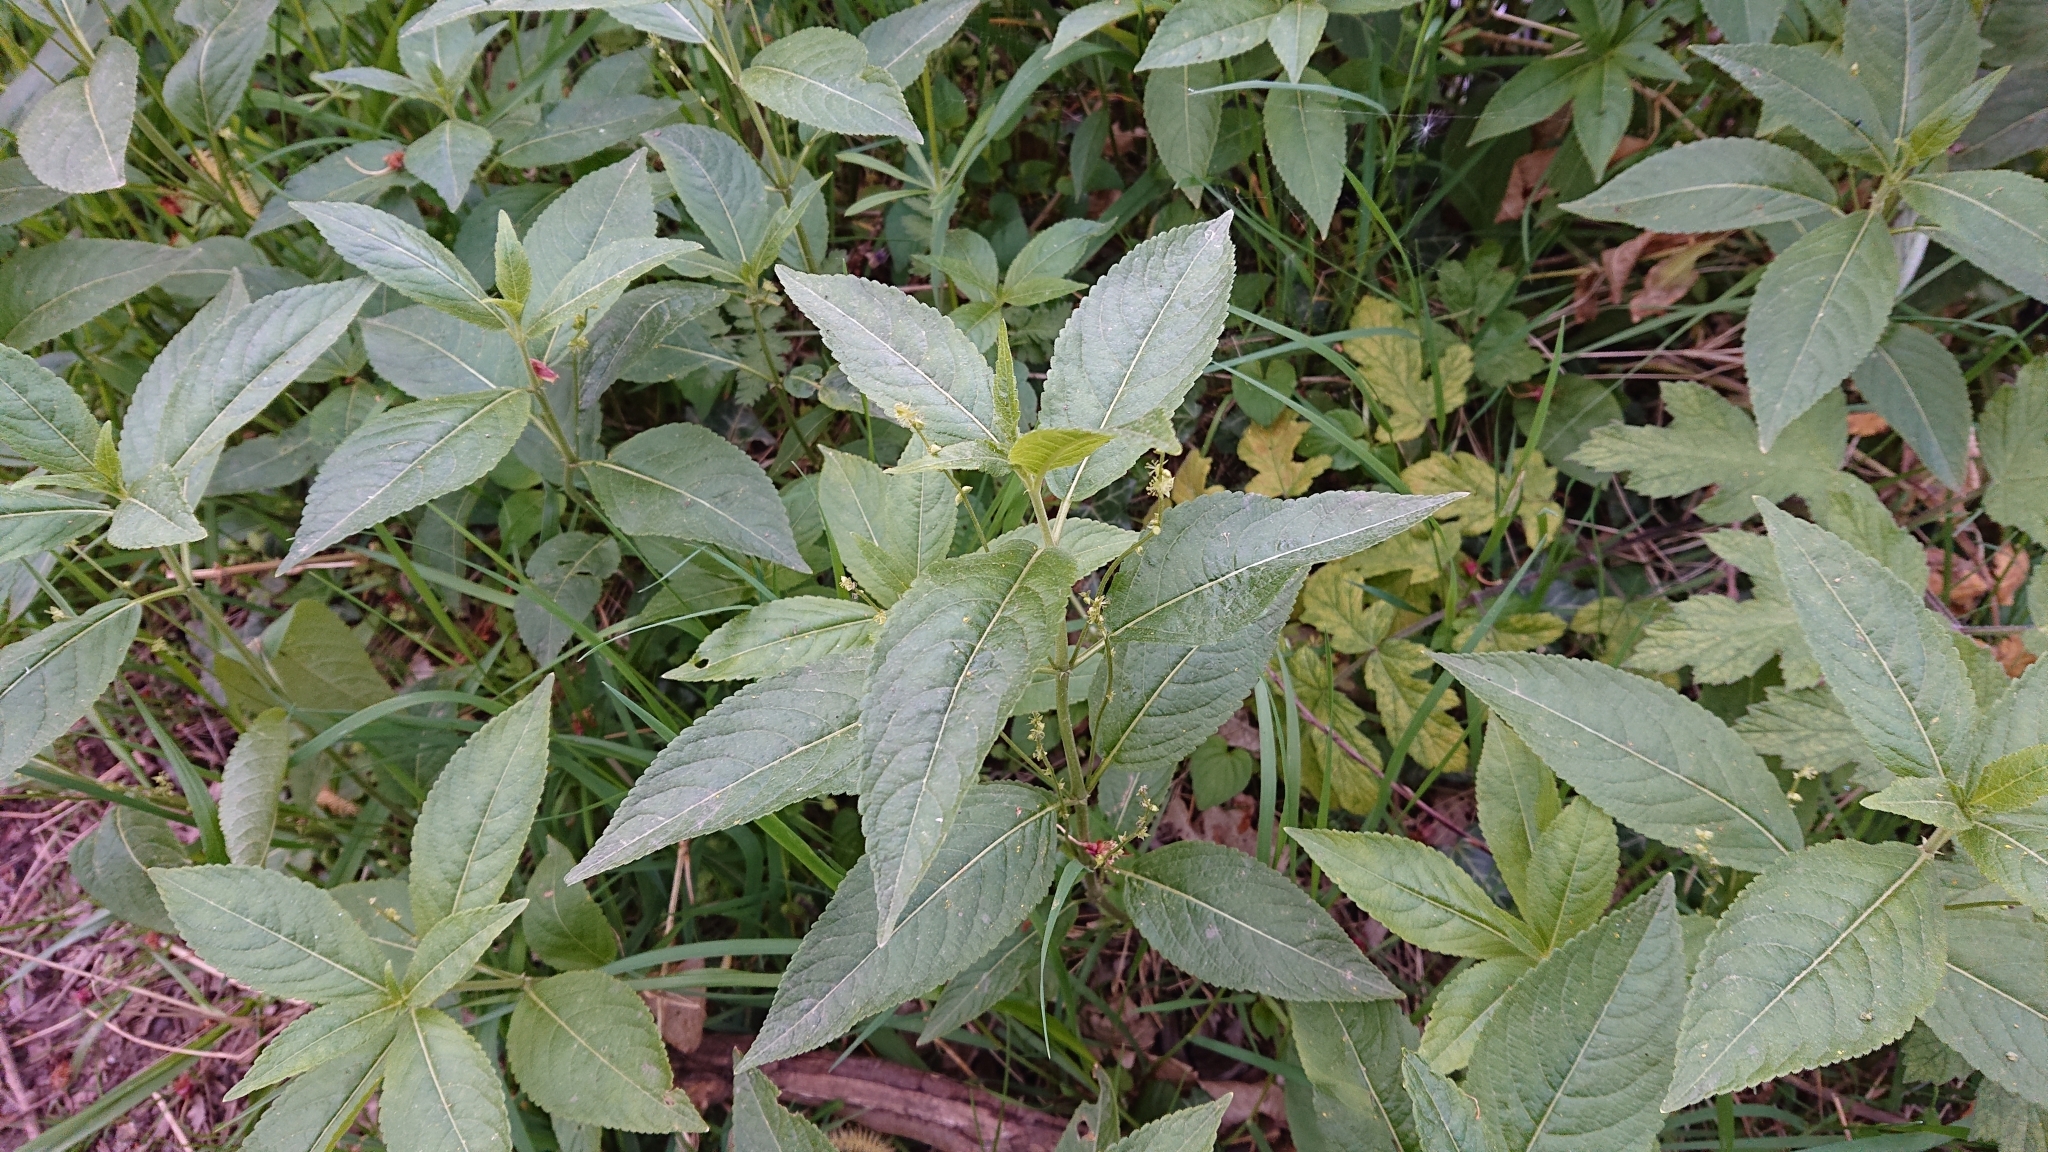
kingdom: Plantae
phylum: Tracheophyta
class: Magnoliopsida
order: Malpighiales
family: Euphorbiaceae
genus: Mercurialis
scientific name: Mercurialis perennis
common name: Dog mercury
